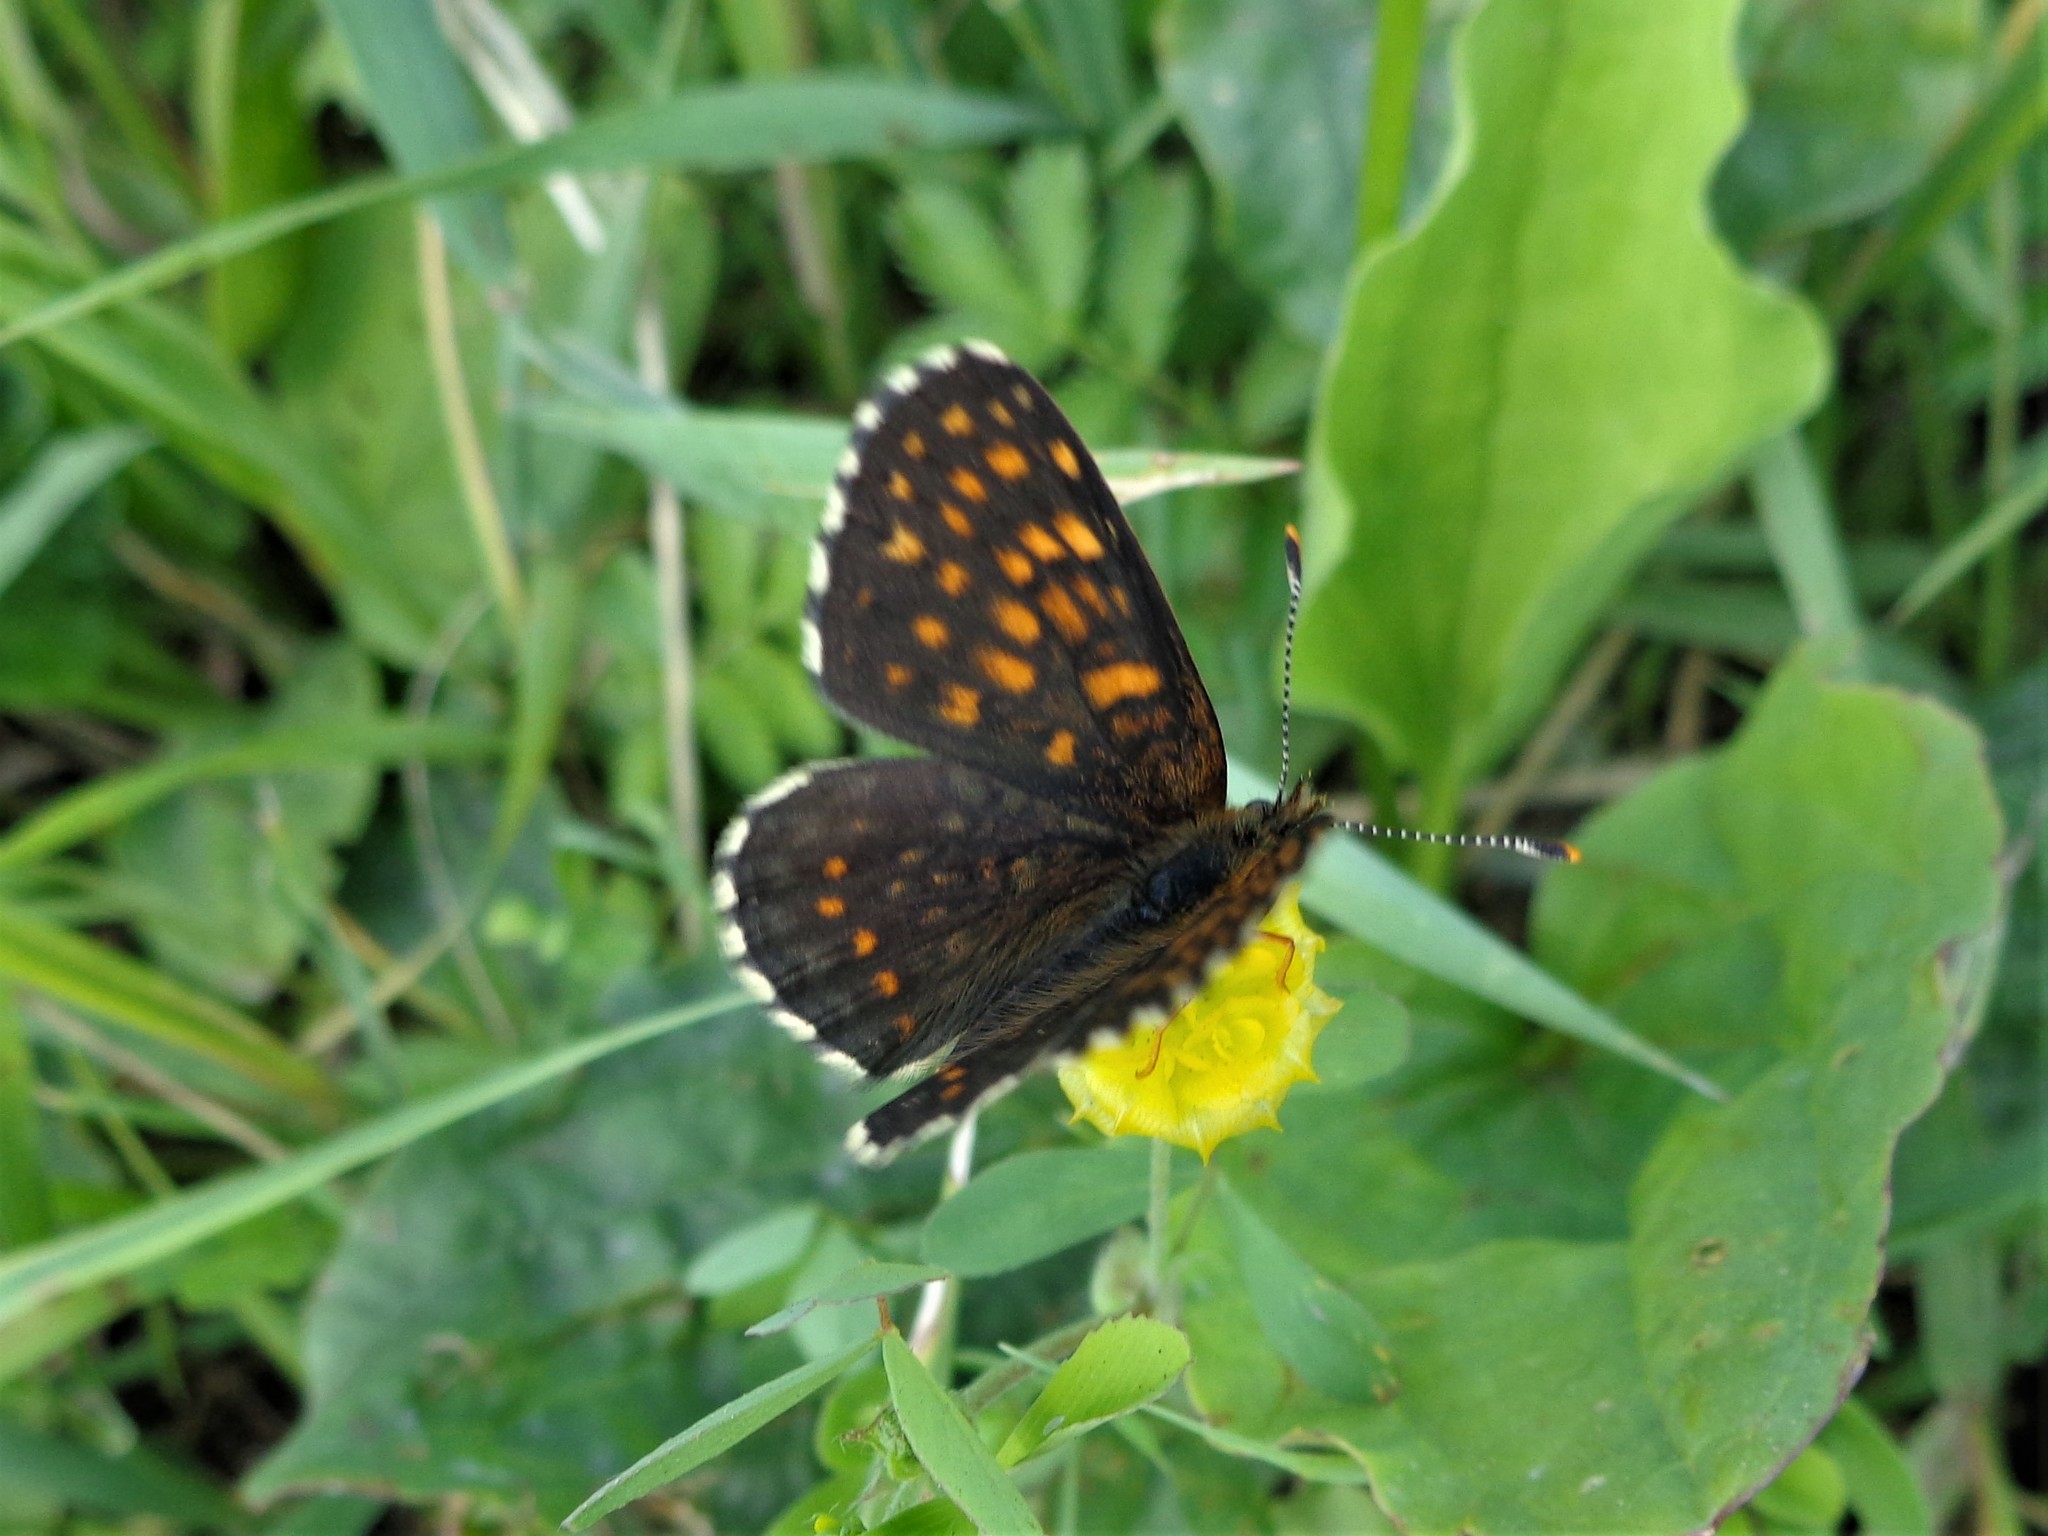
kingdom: Animalia
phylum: Arthropoda
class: Insecta
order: Lepidoptera
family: Nymphalidae
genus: Melitaea
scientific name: Melitaea diamina
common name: False heath fritillary
